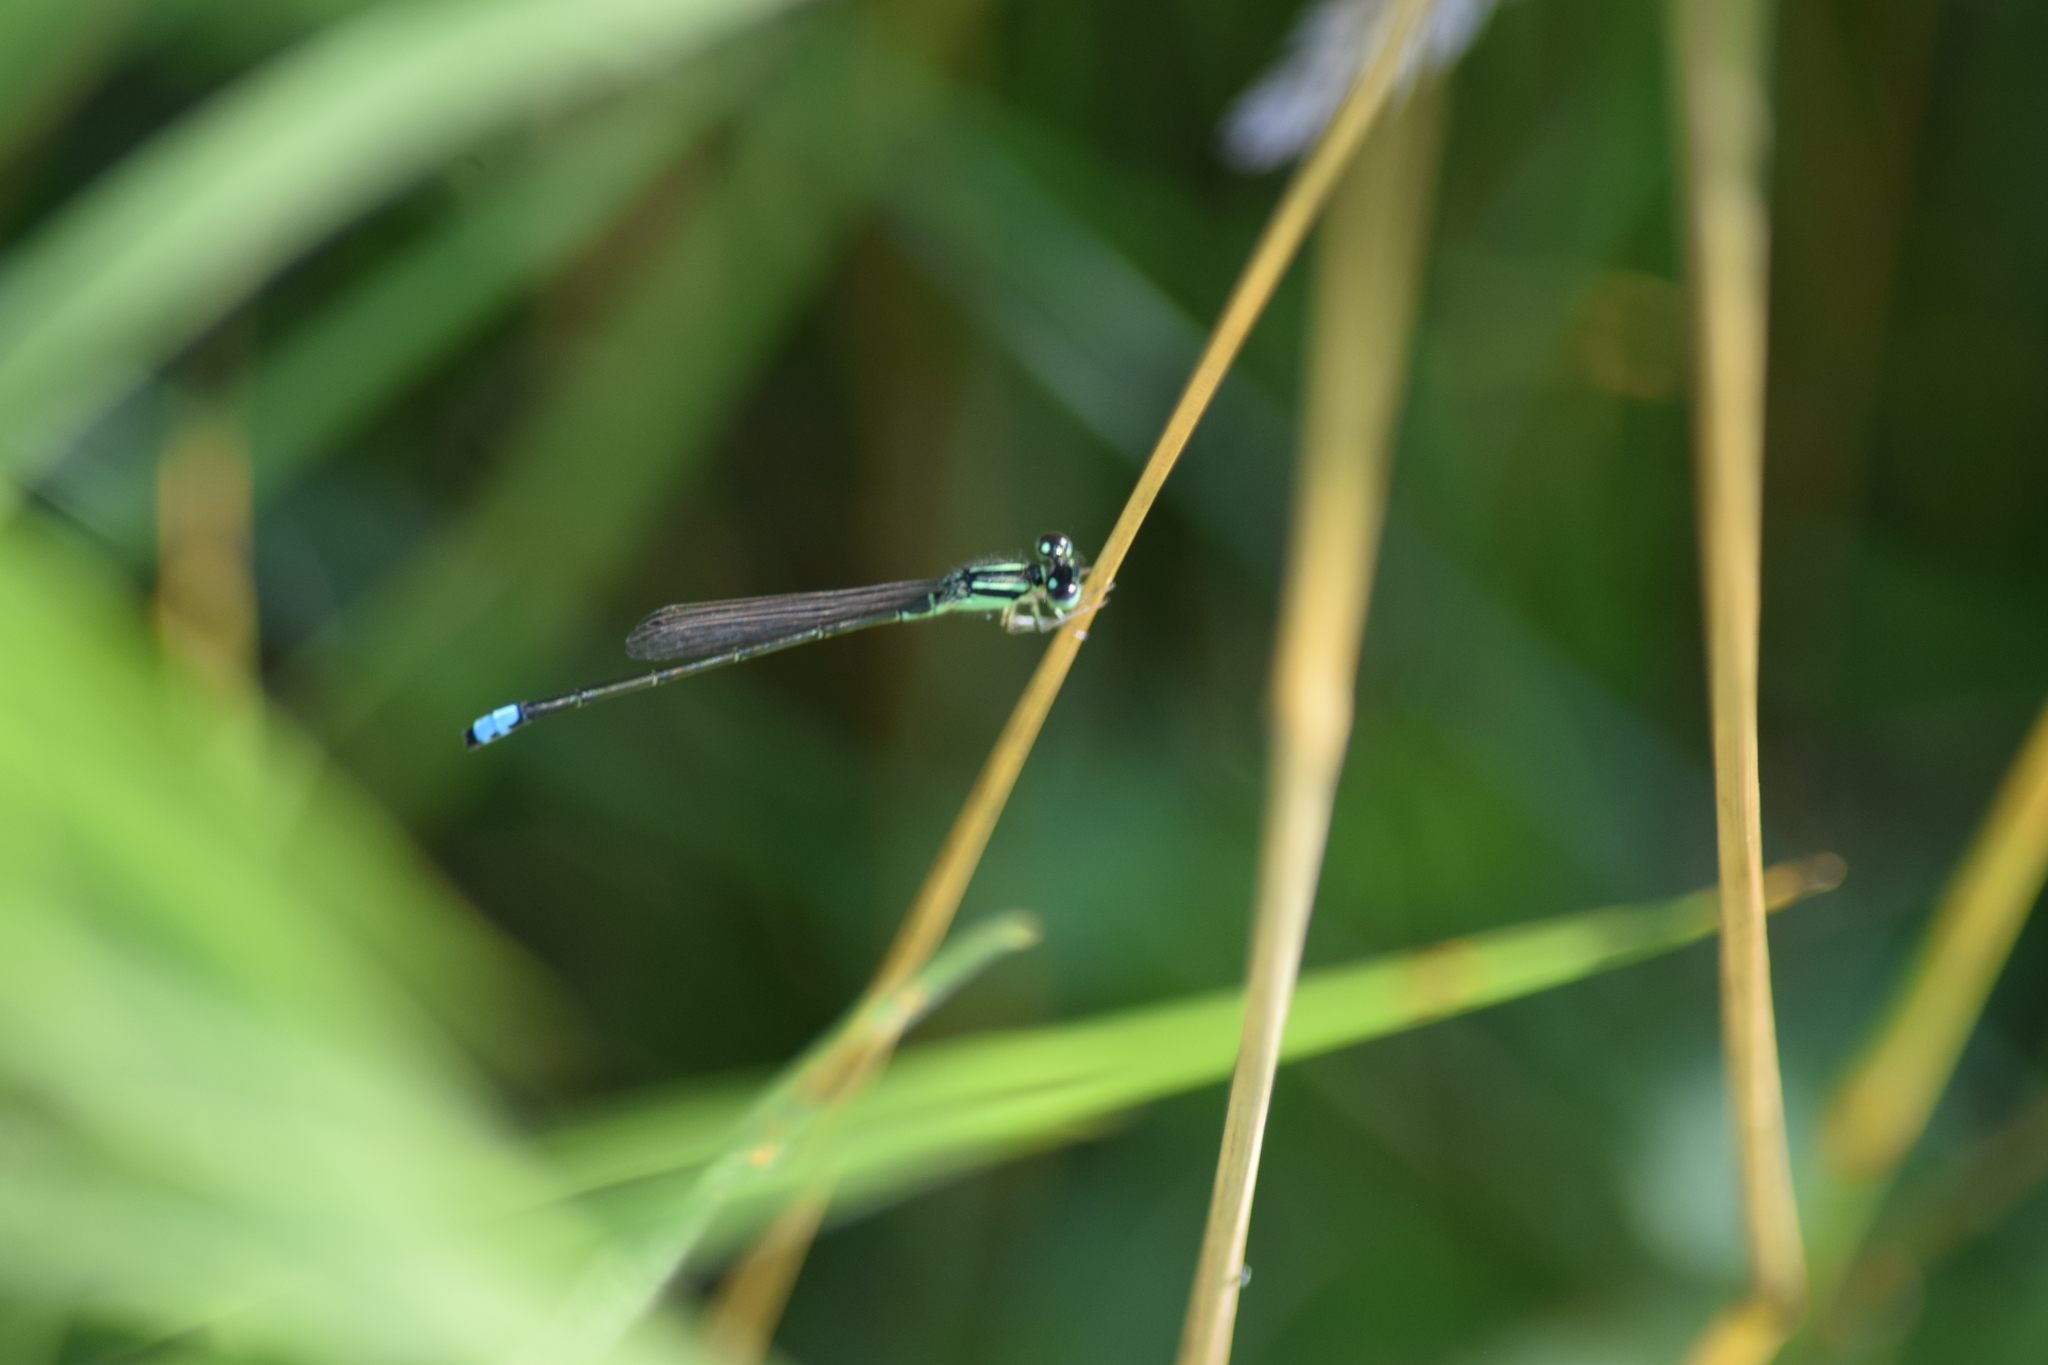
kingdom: Animalia
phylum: Arthropoda
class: Insecta
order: Odonata
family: Coenagrionidae
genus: Ischnura
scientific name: Ischnura verticalis
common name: Eastern forktail
